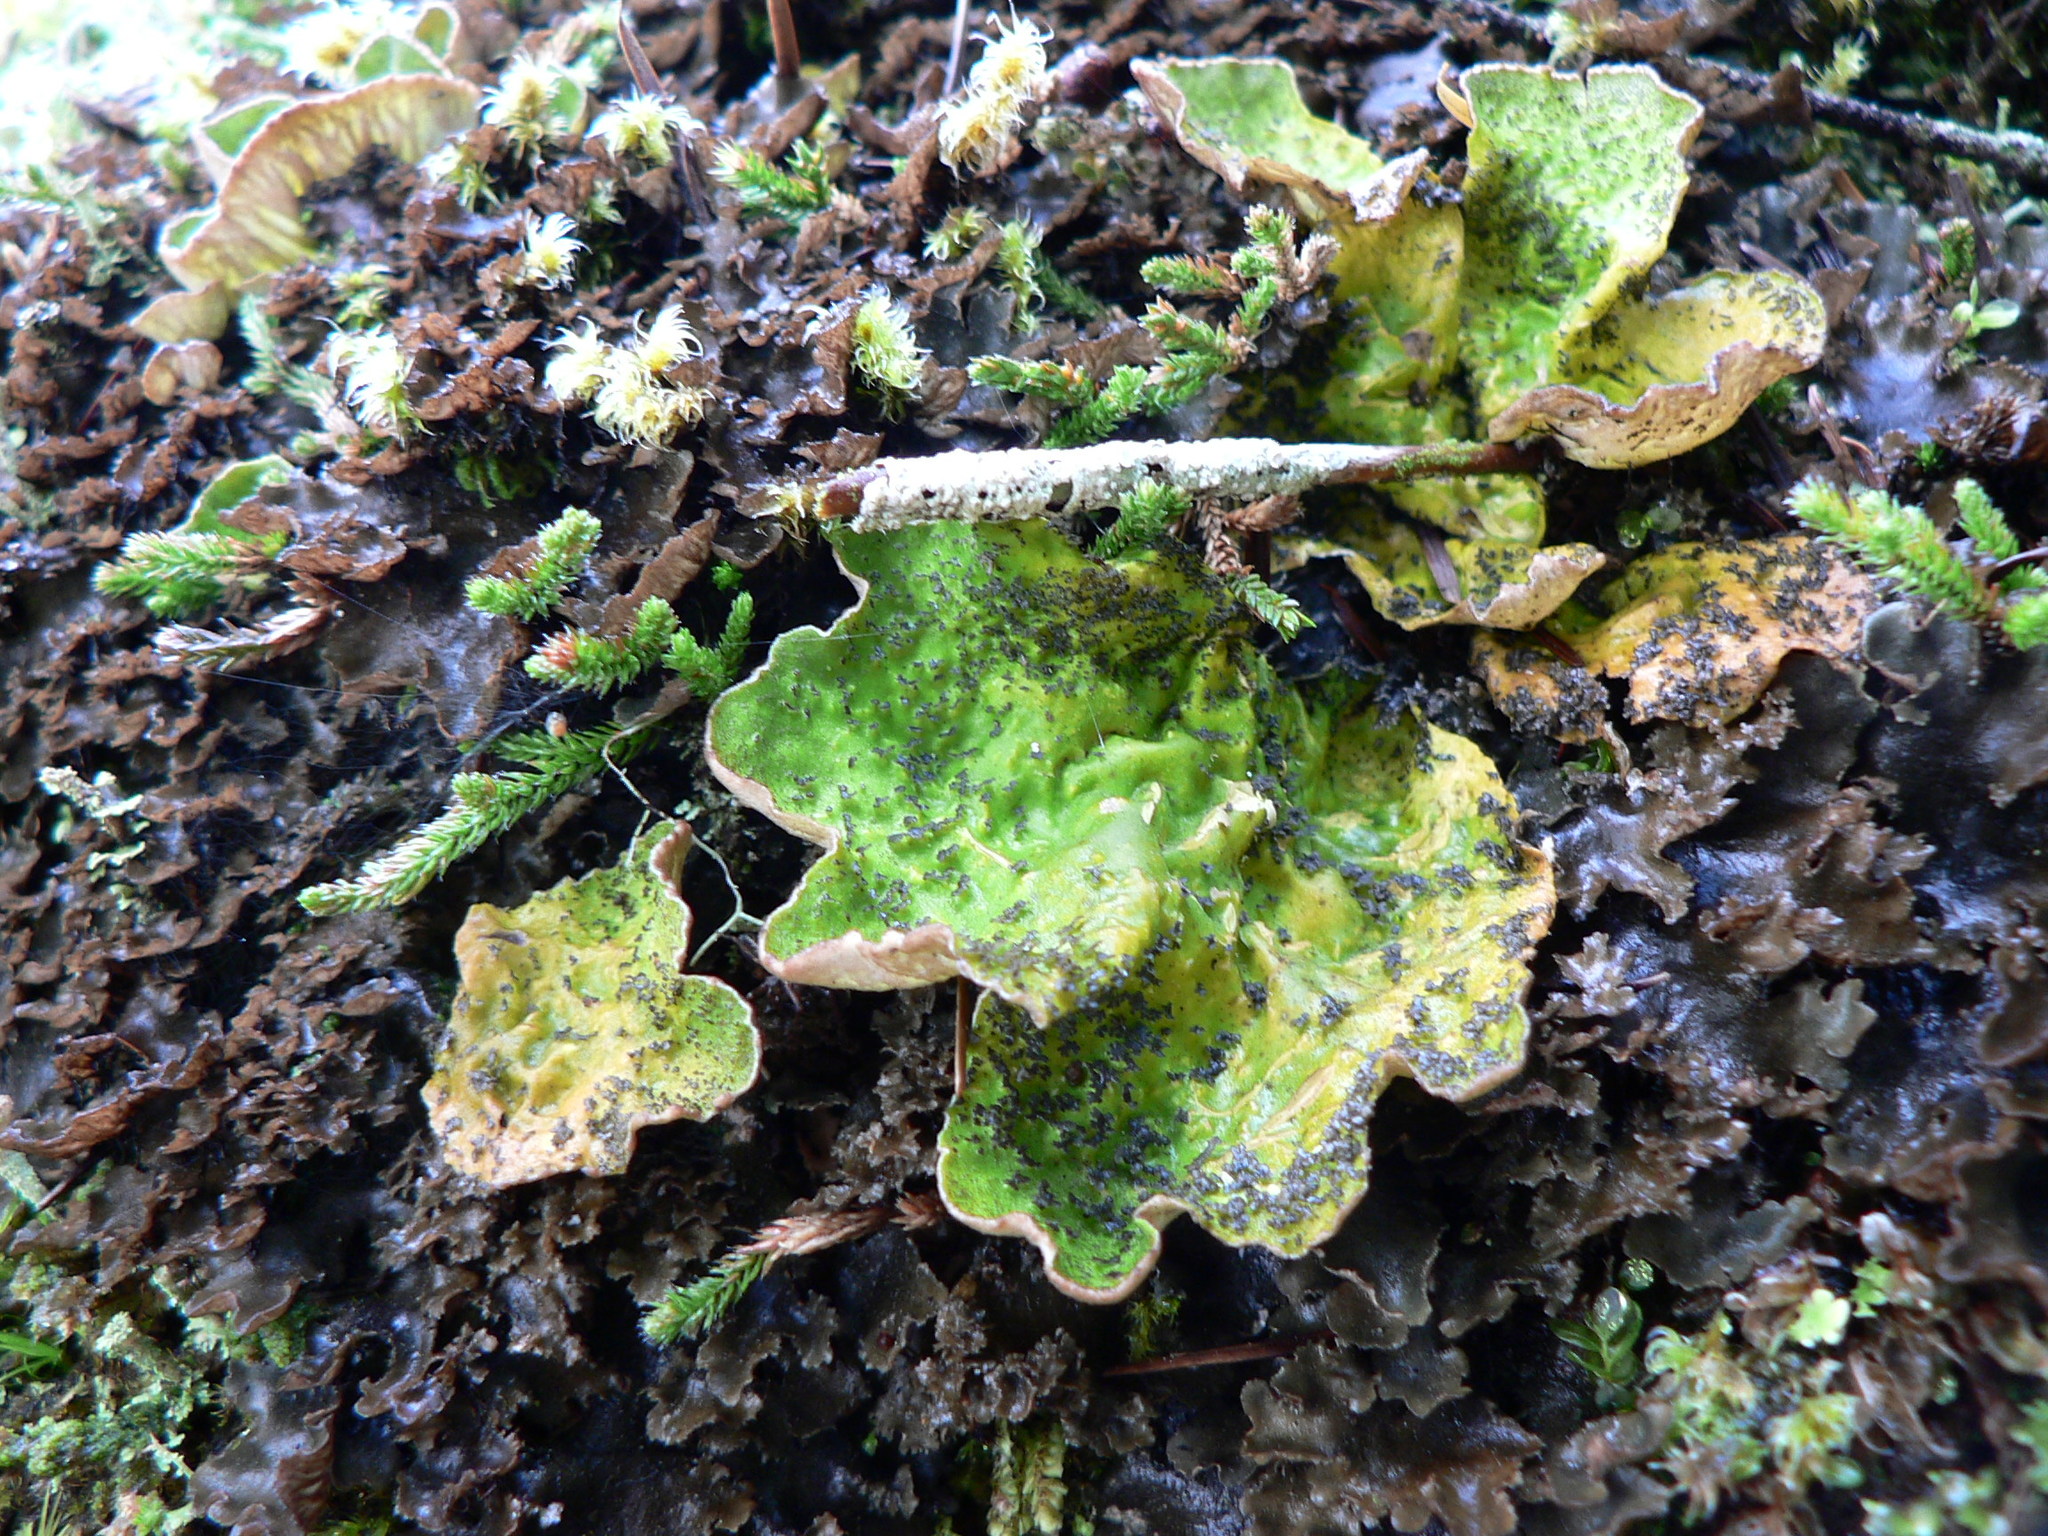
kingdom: Fungi
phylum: Ascomycota
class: Lecanoromycetes
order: Peltigerales
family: Peltigeraceae
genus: Peltigera
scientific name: Peltigera britannica
